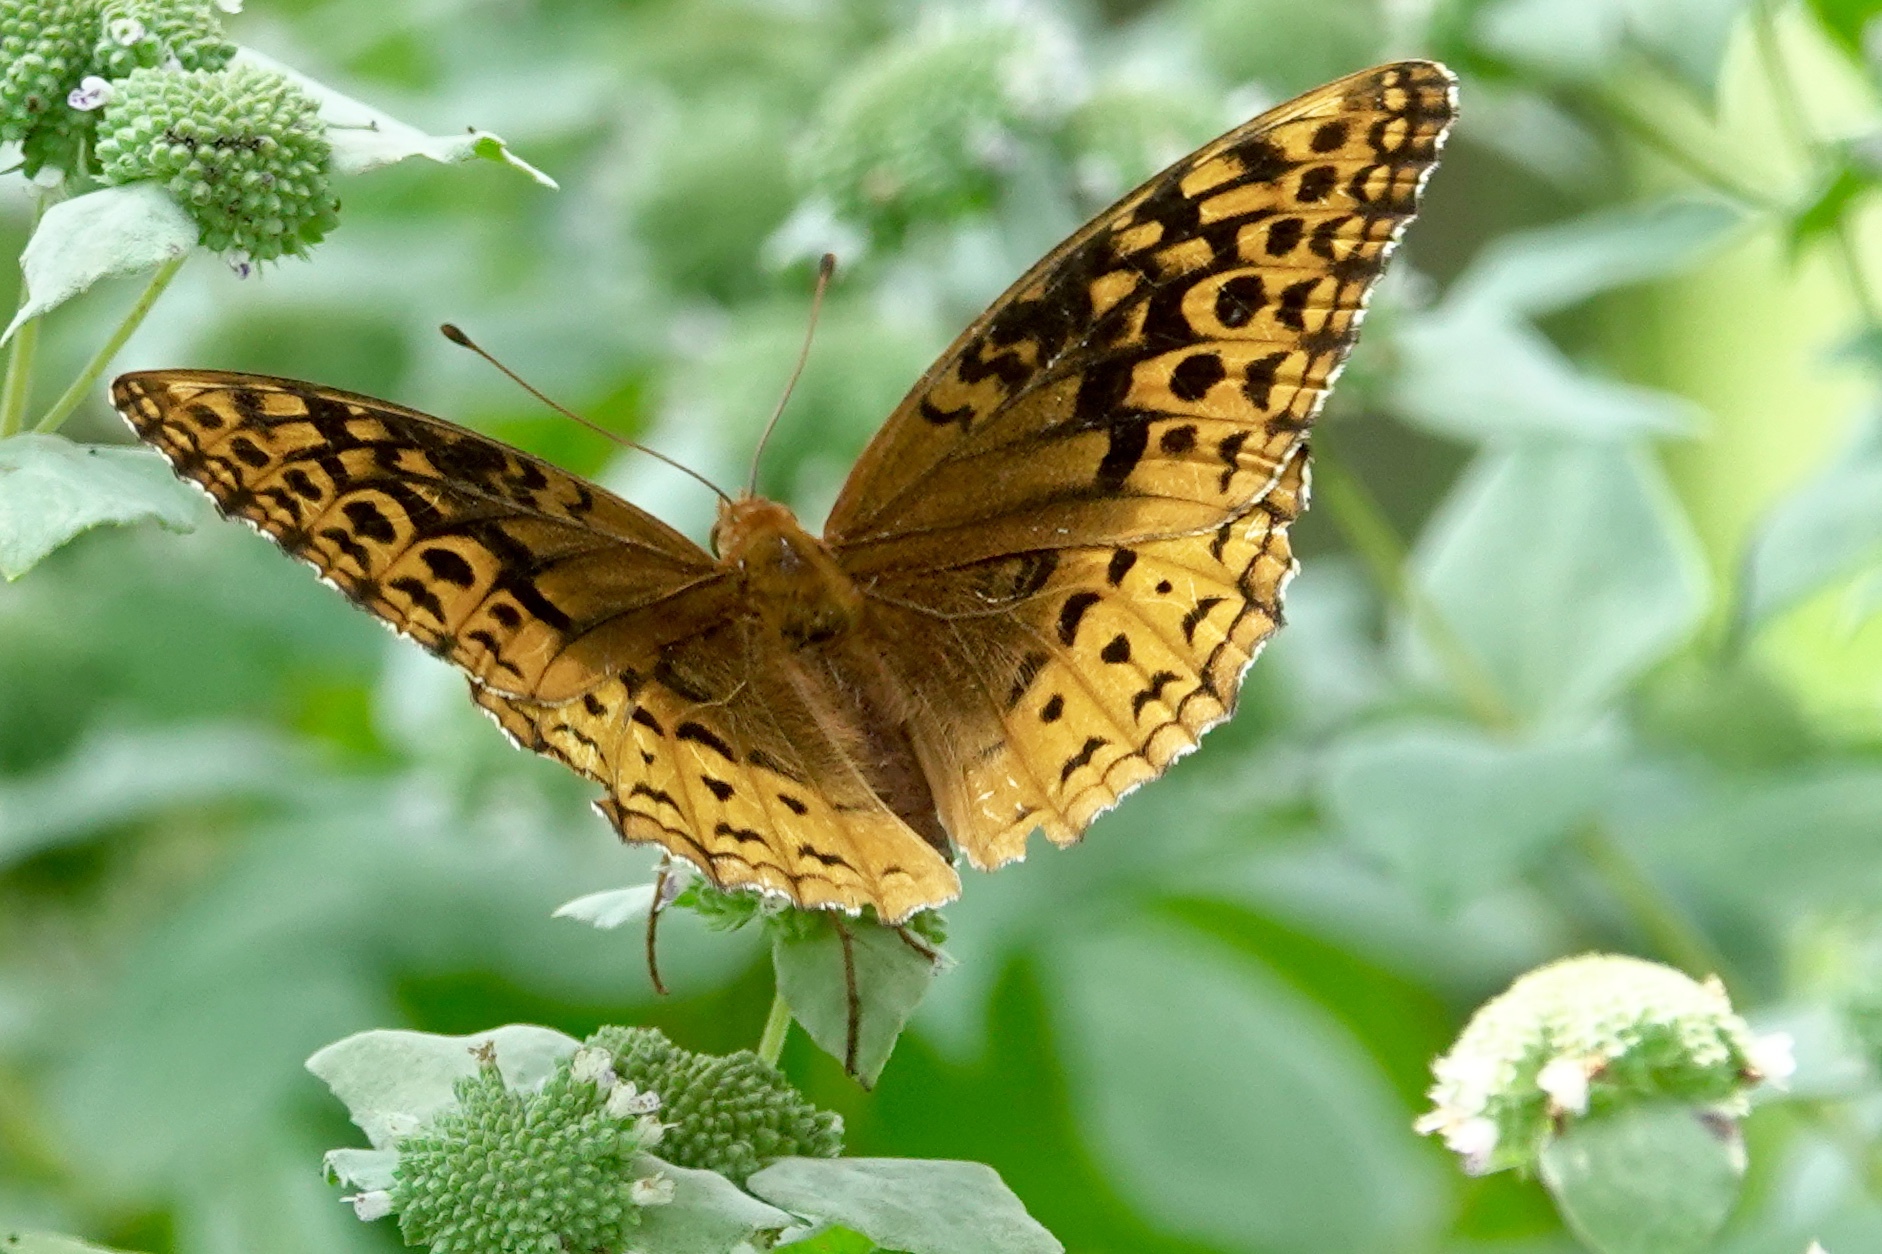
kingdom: Animalia
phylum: Arthropoda
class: Insecta
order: Lepidoptera
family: Nymphalidae
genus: Speyeria
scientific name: Speyeria cybele
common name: Great spangled fritillary
